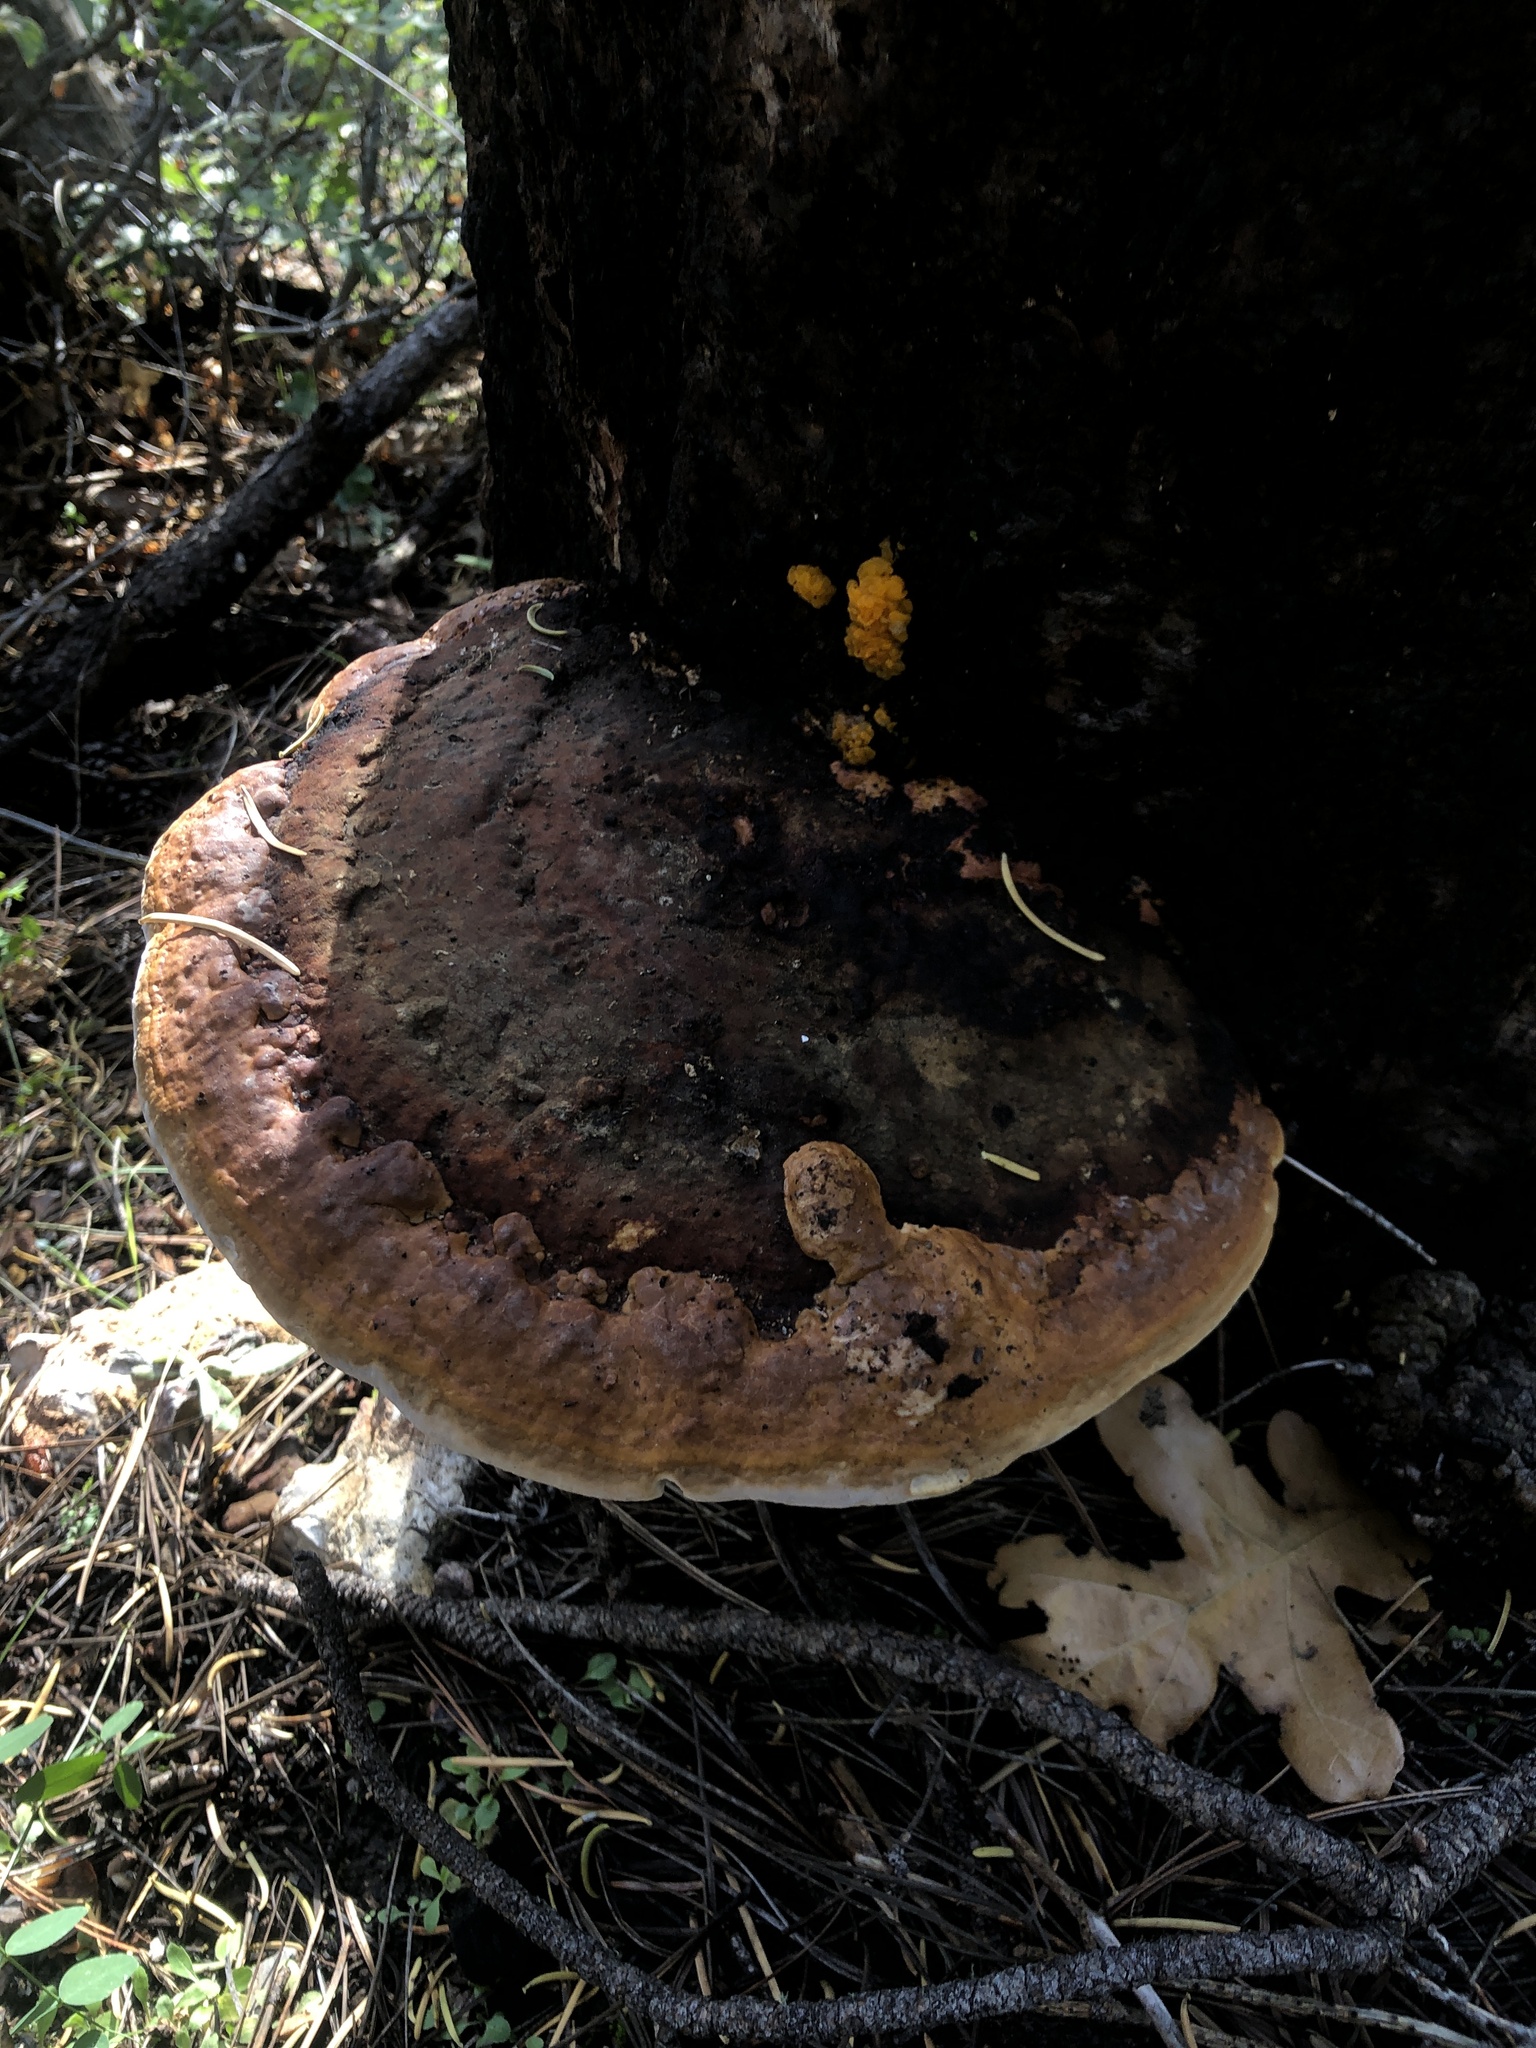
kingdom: Fungi
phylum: Basidiomycota
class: Agaricomycetes
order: Polyporales
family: Fomitopsidaceae
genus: Fomitopsis
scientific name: Fomitopsis schrenkii
